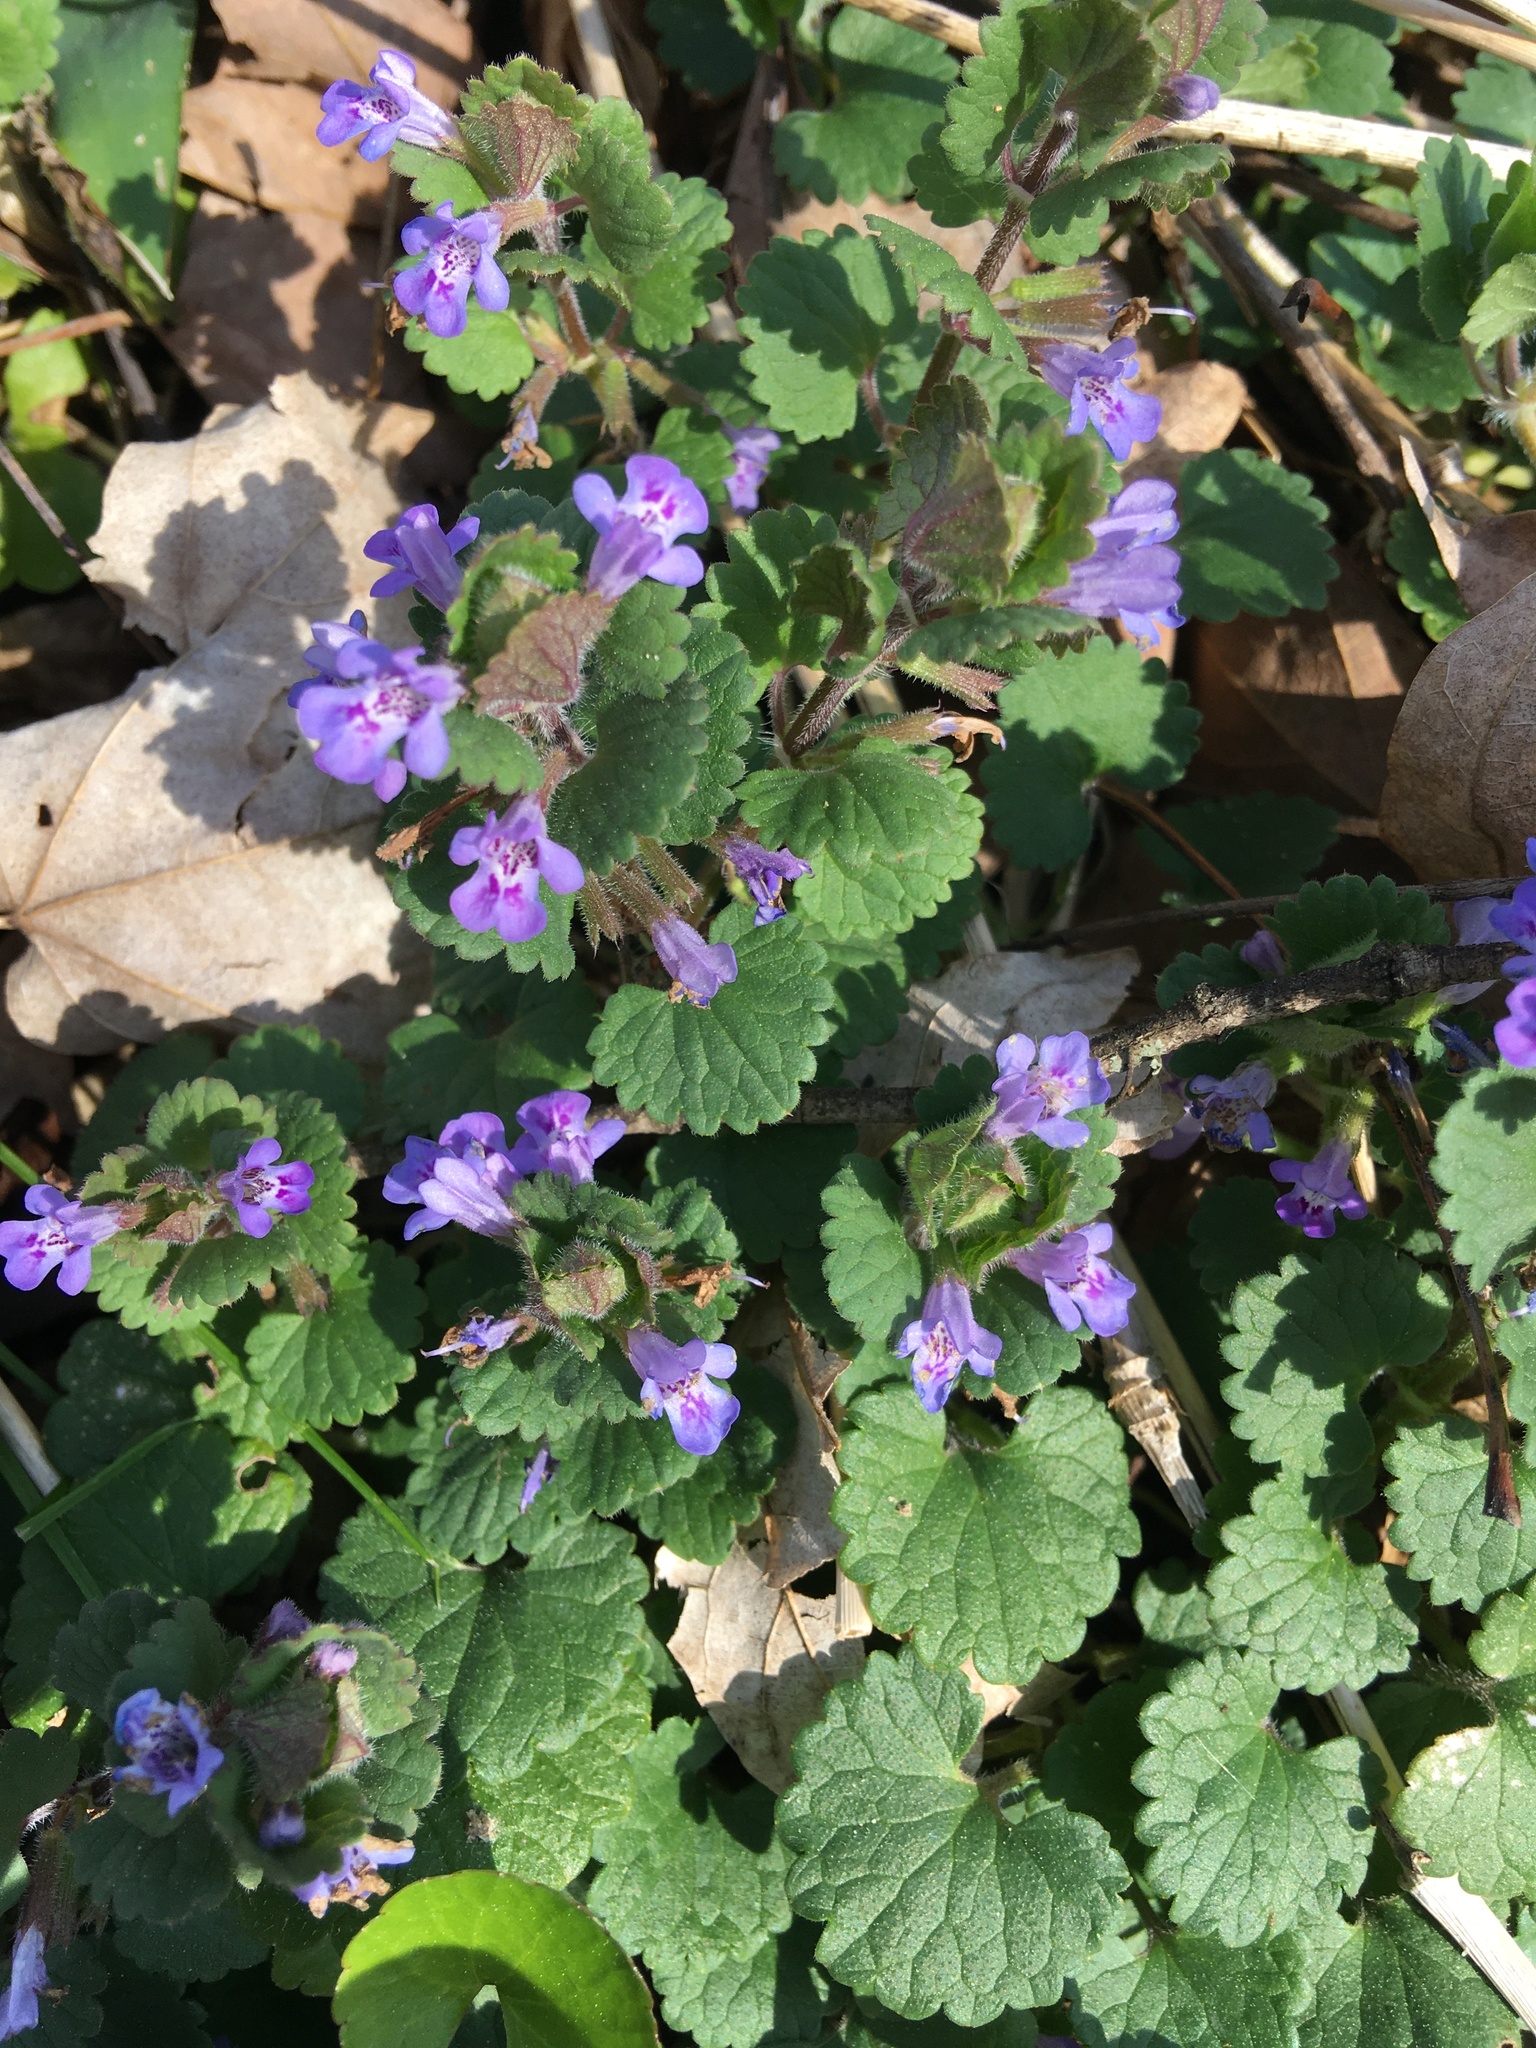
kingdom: Plantae
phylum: Tracheophyta
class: Magnoliopsida
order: Lamiales
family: Lamiaceae
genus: Glechoma
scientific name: Glechoma hederacea
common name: Ground ivy
